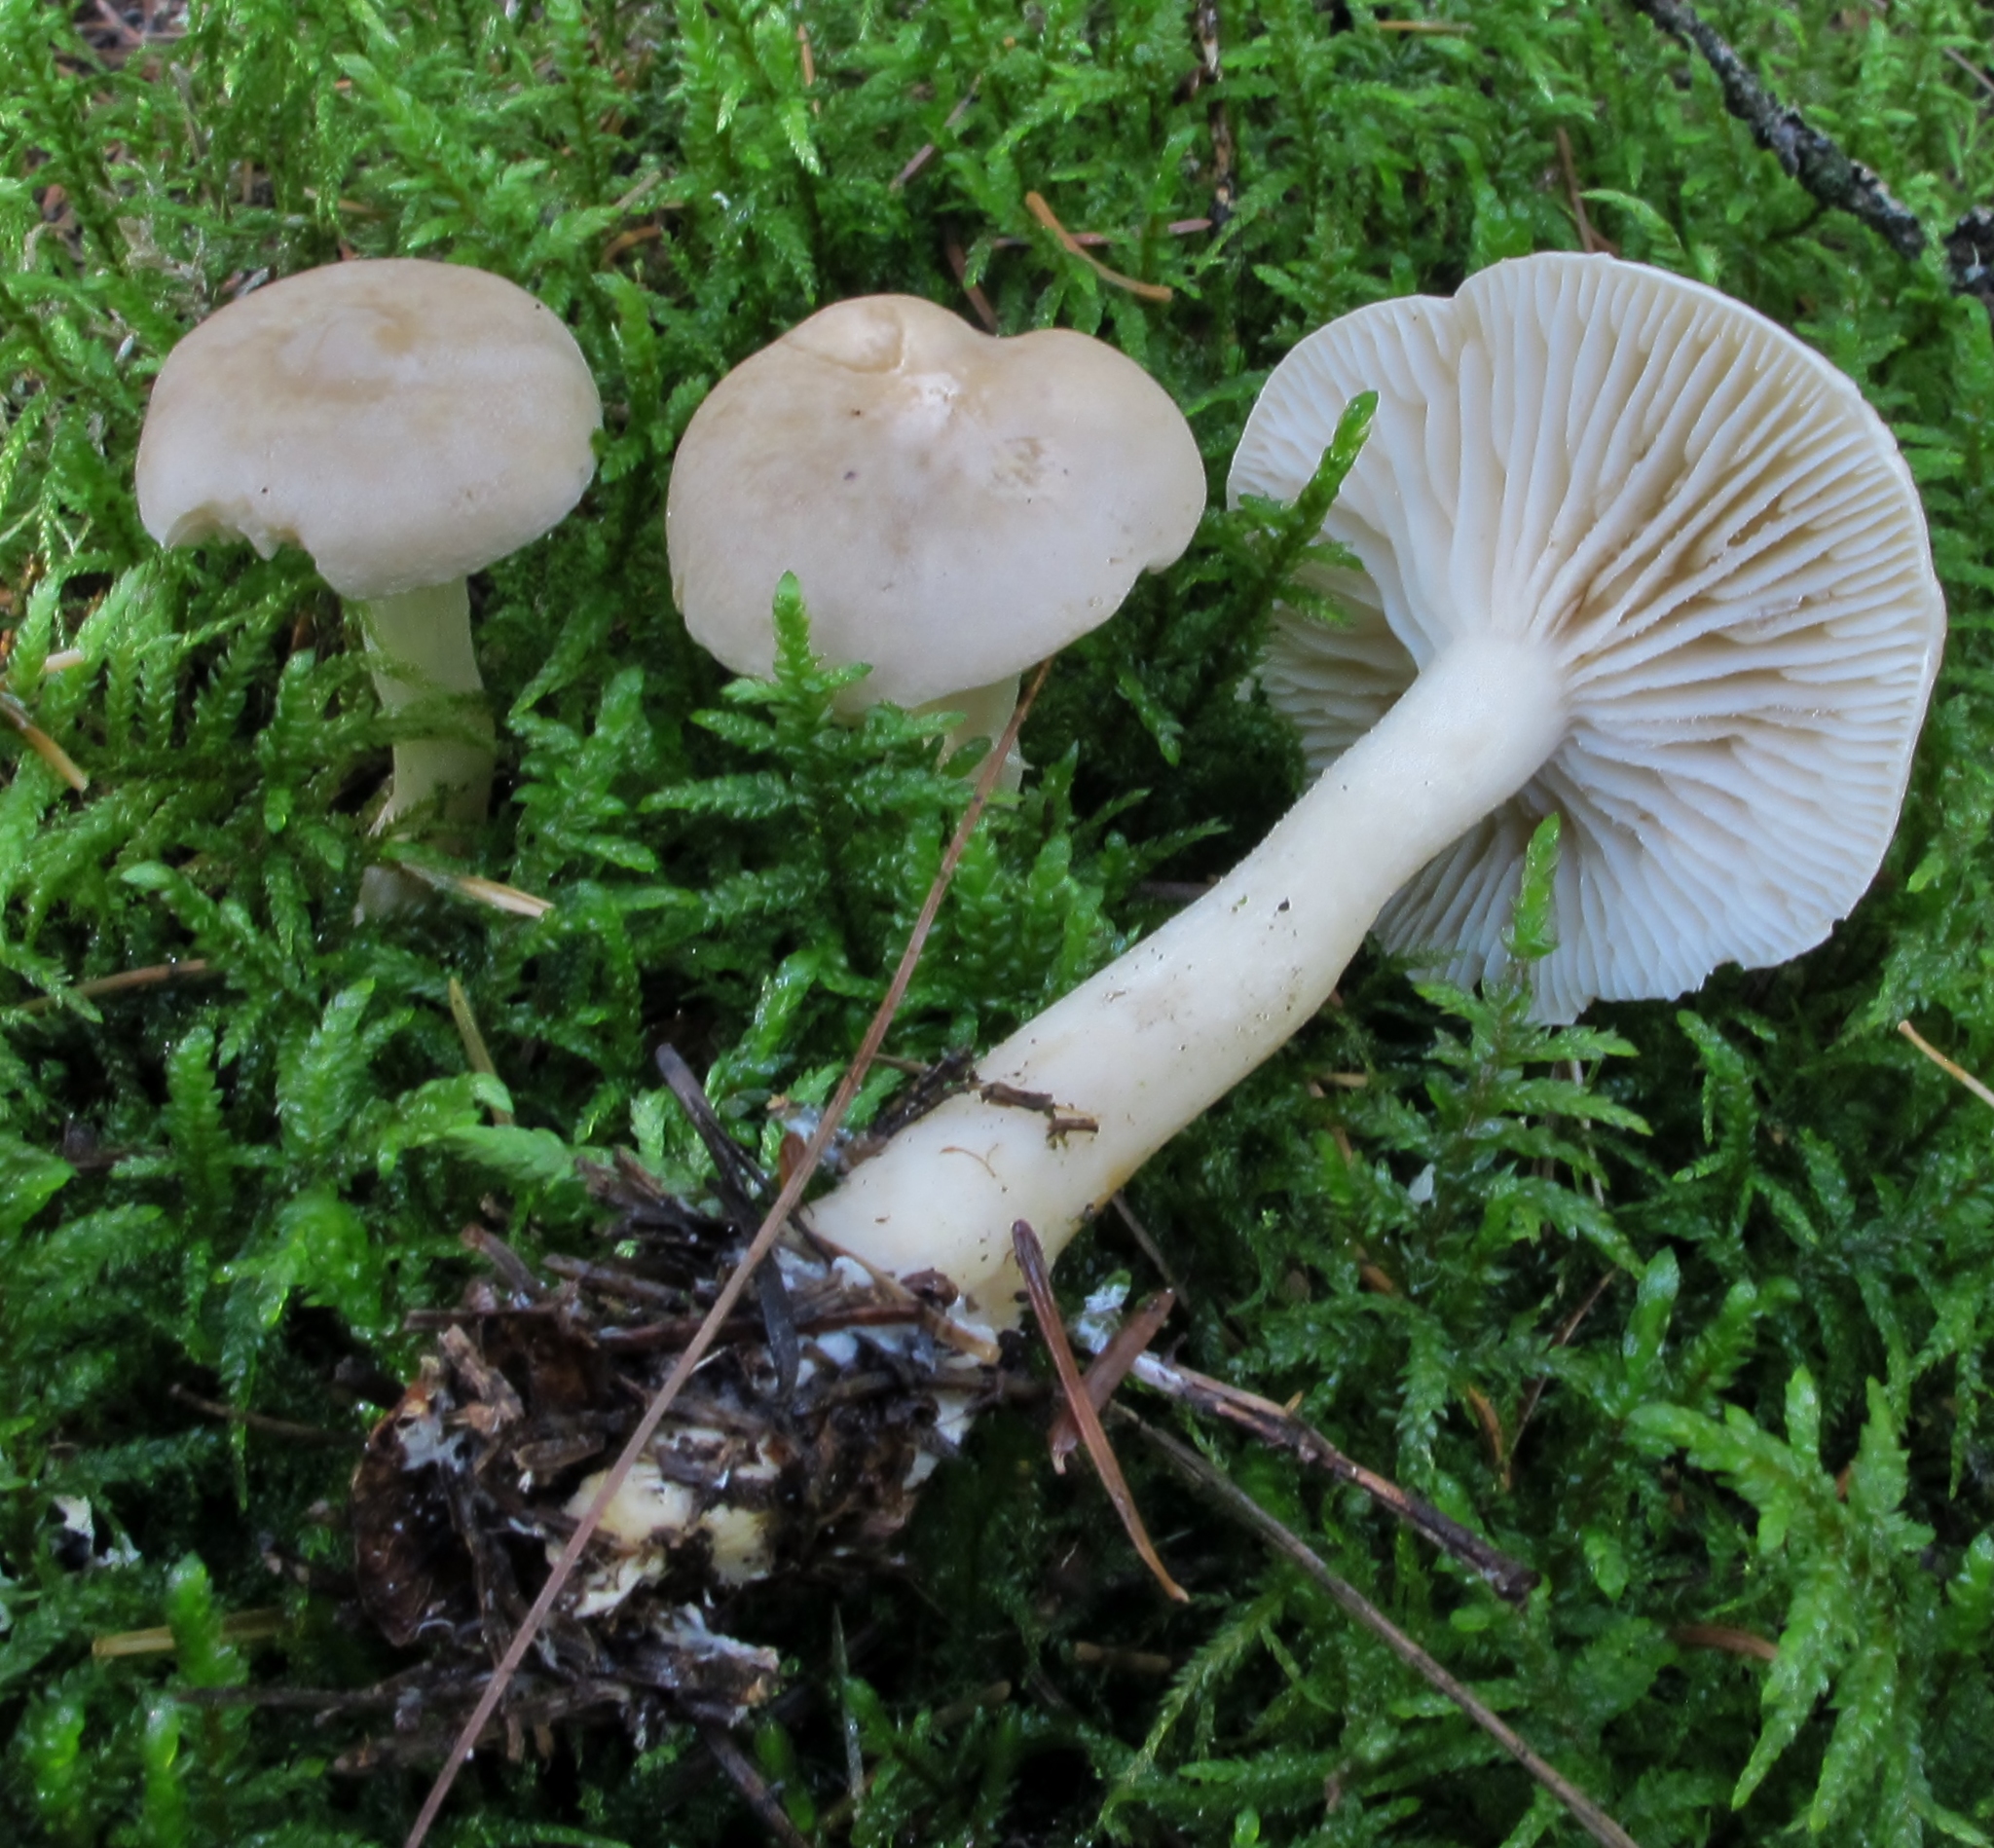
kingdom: Fungi
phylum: Basidiomycota
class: Agaricomycetes
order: Agaricales
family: Tricholomataceae
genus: Tricholoma
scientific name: Tricholoma inamoenum
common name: Gassy knight
